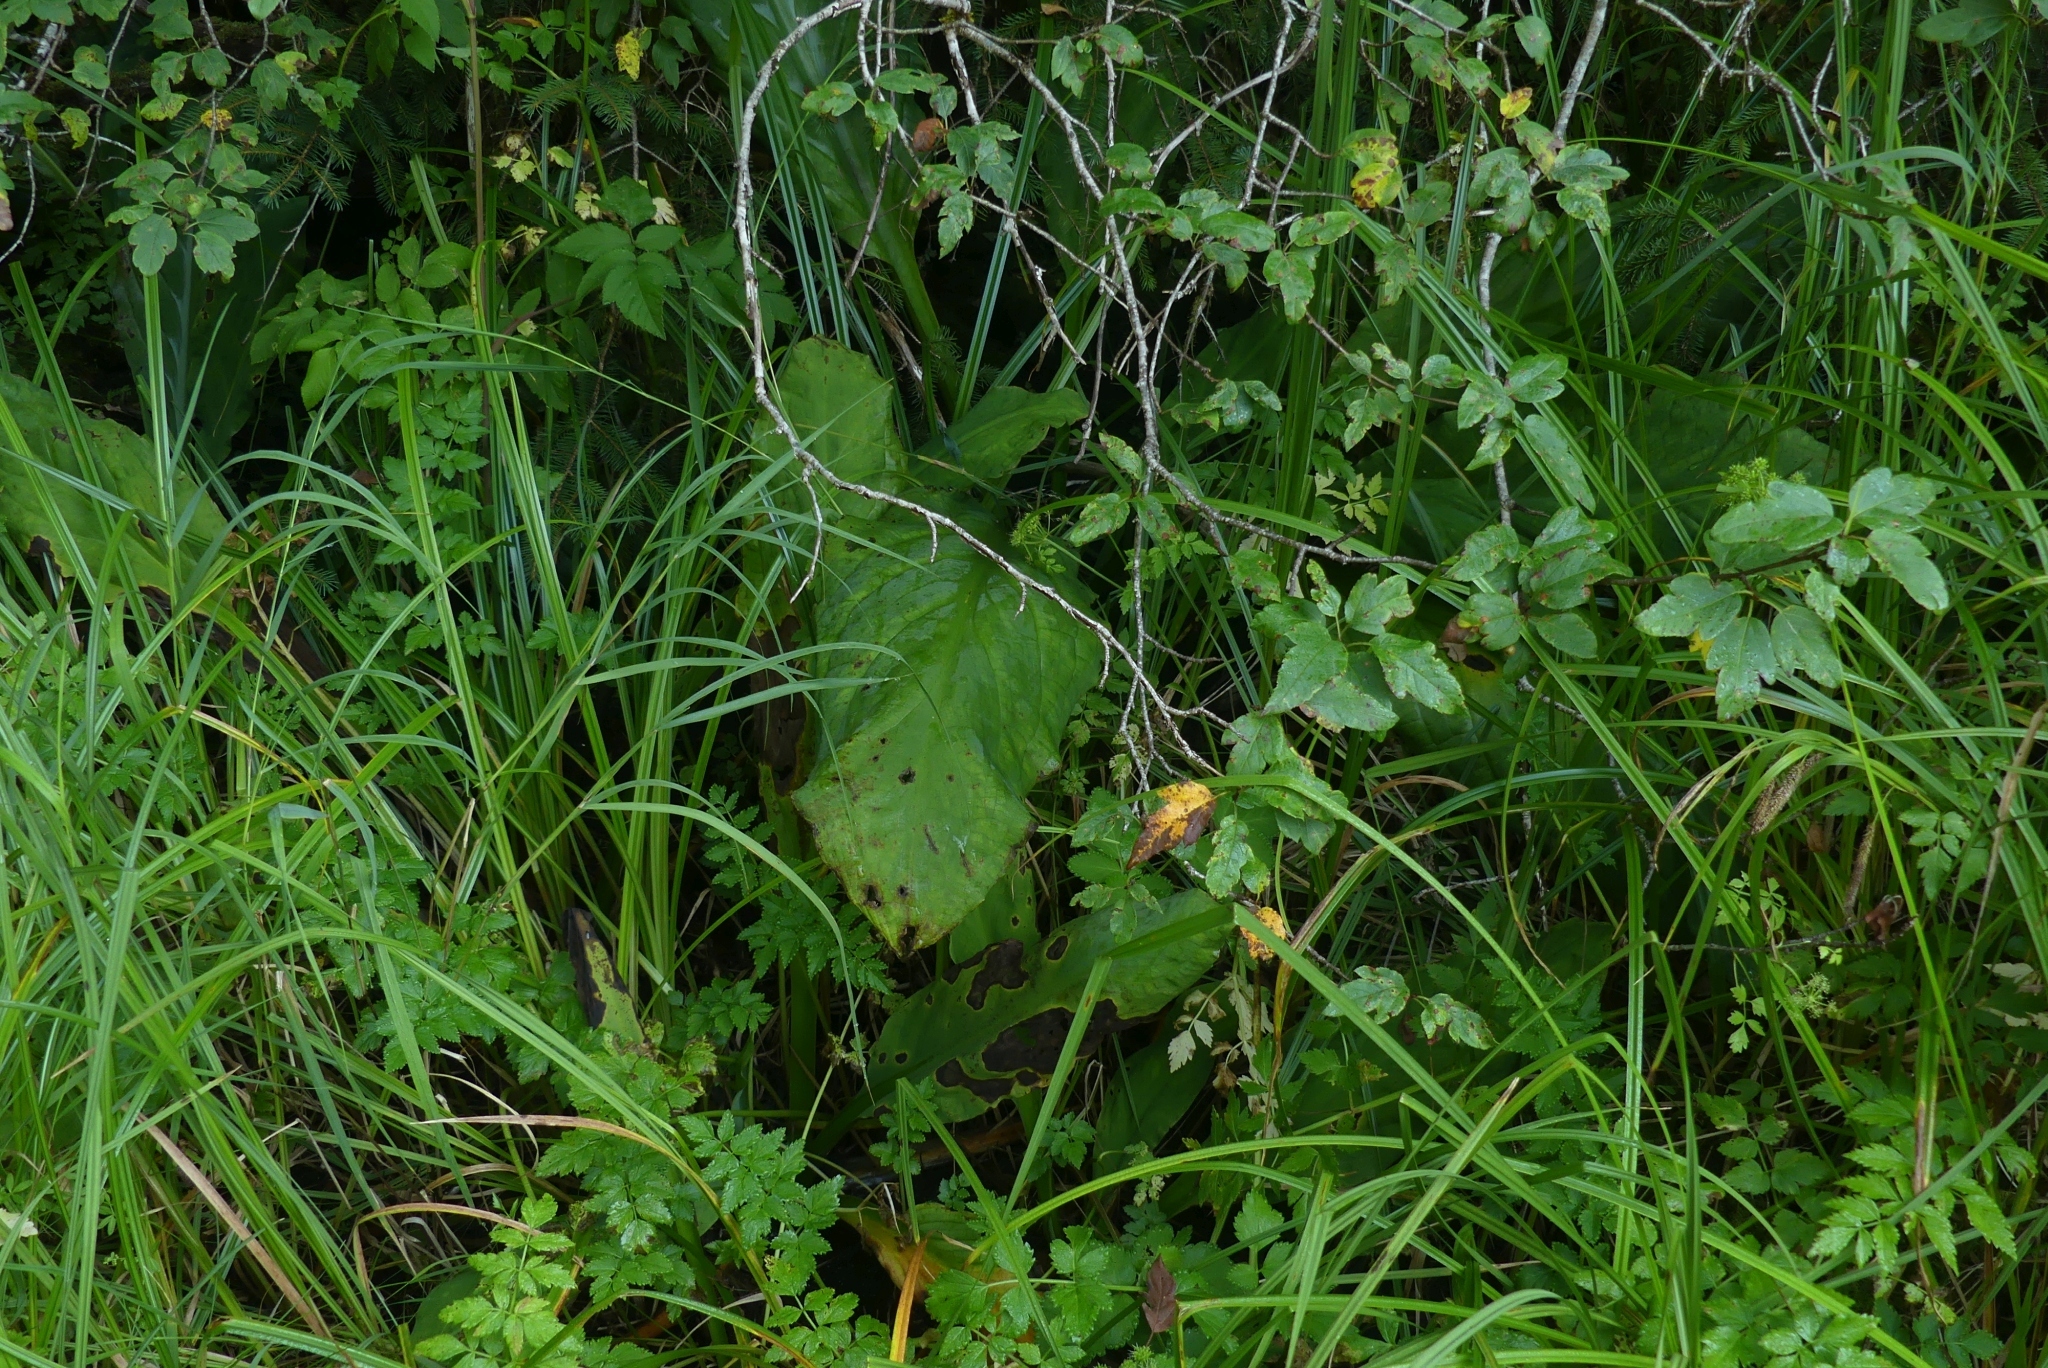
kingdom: Plantae
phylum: Tracheophyta
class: Liliopsida
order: Alismatales
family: Araceae
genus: Lysichiton
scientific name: Lysichiton americanus
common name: American skunk cabbage
